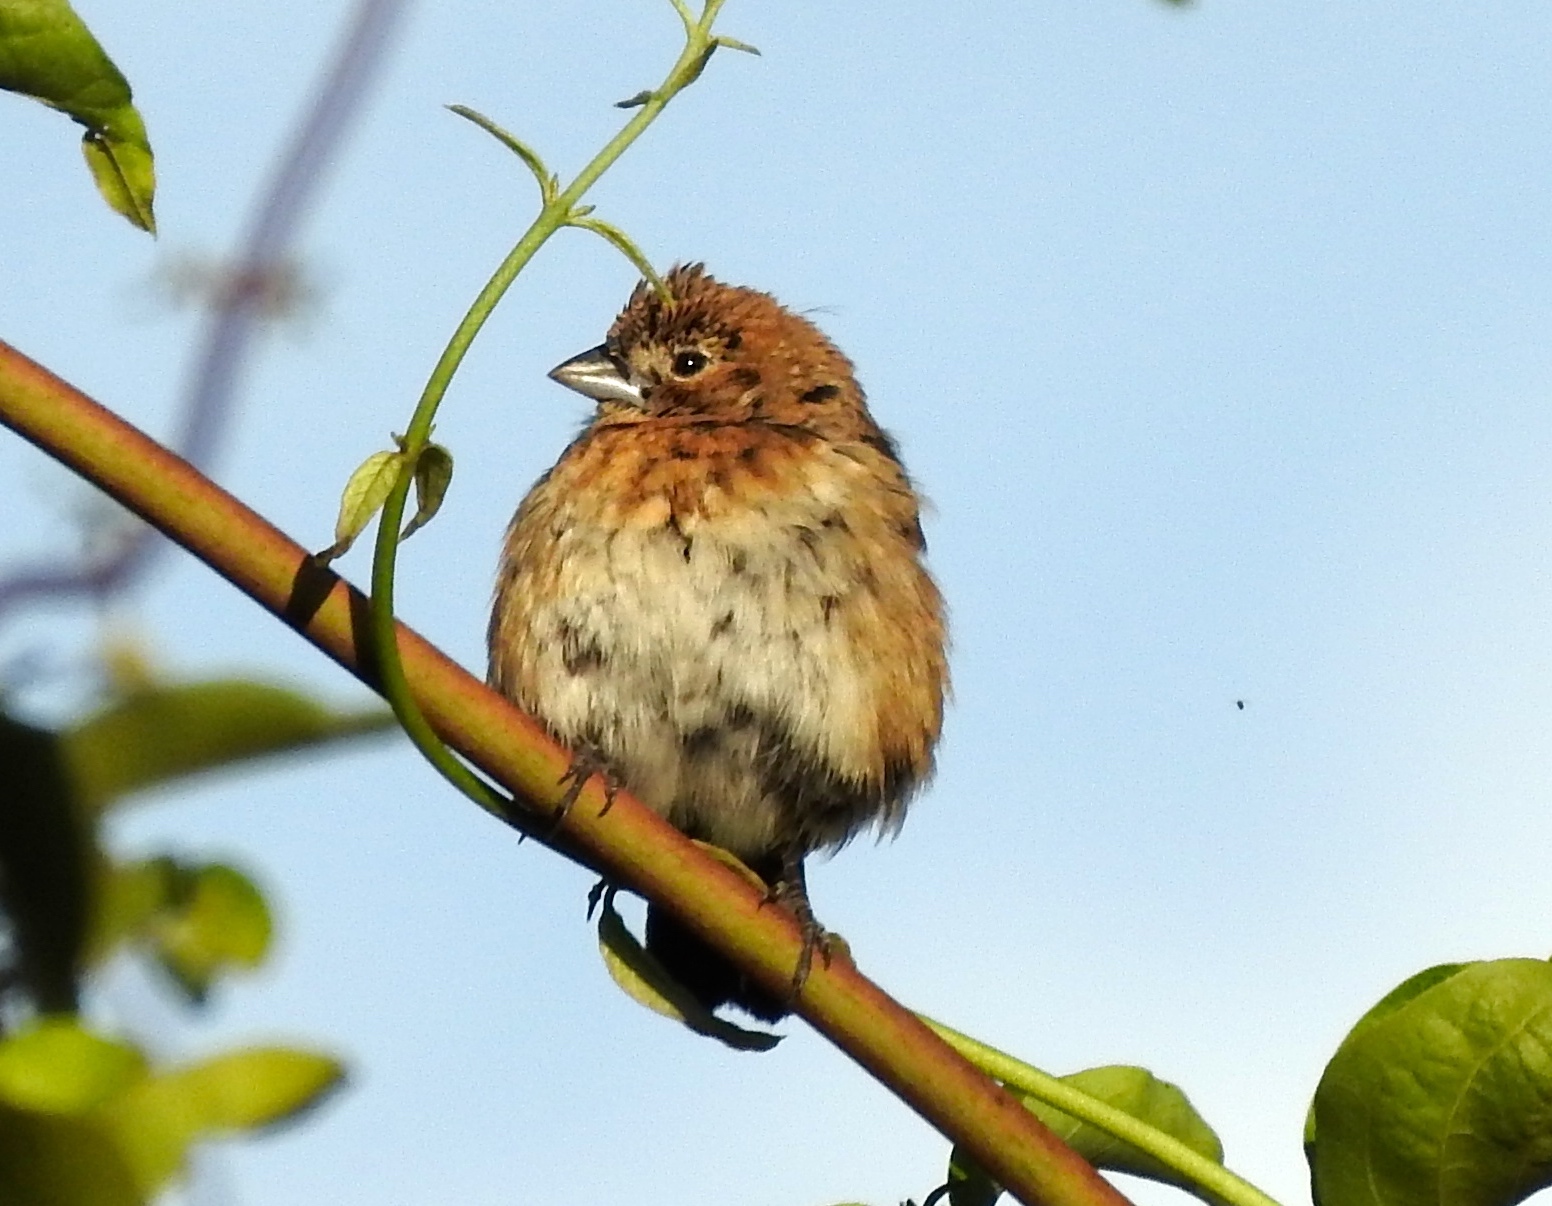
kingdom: Animalia
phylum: Chordata
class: Aves
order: Passeriformes
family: Thraupidae
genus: Volatinia
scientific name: Volatinia jacarina
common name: Blue-black grassquit
